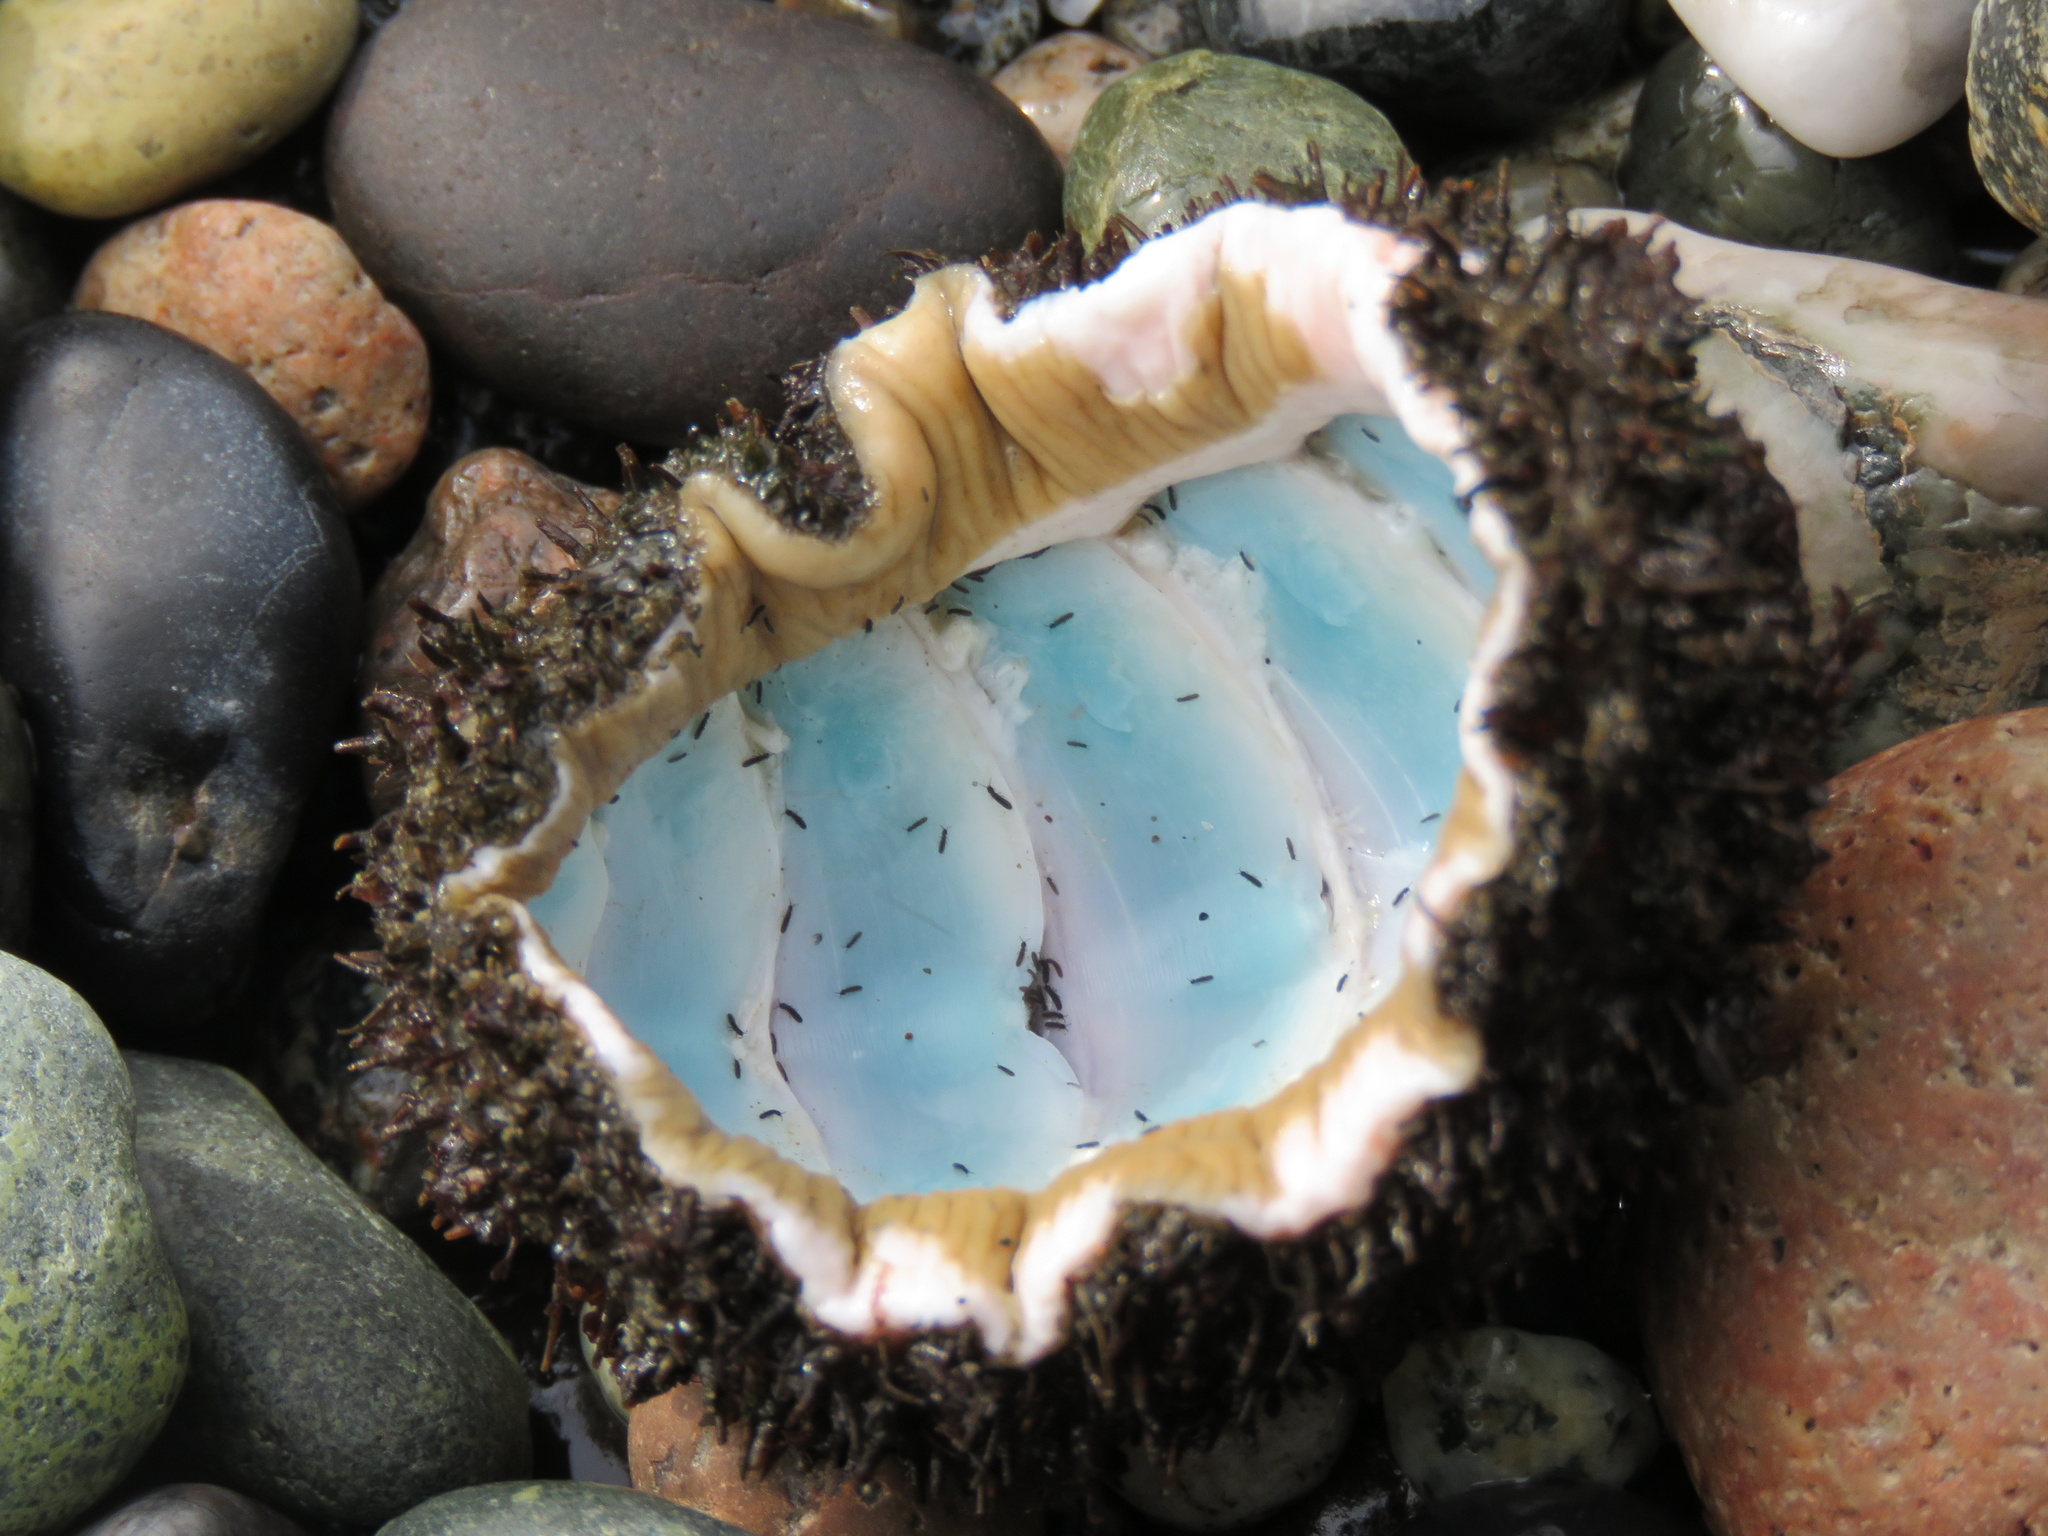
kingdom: Animalia
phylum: Mollusca
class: Polyplacophora
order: Chitonida
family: Mopaliidae
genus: Mopalia
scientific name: Mopalia muscosa
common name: Mossy chiton
